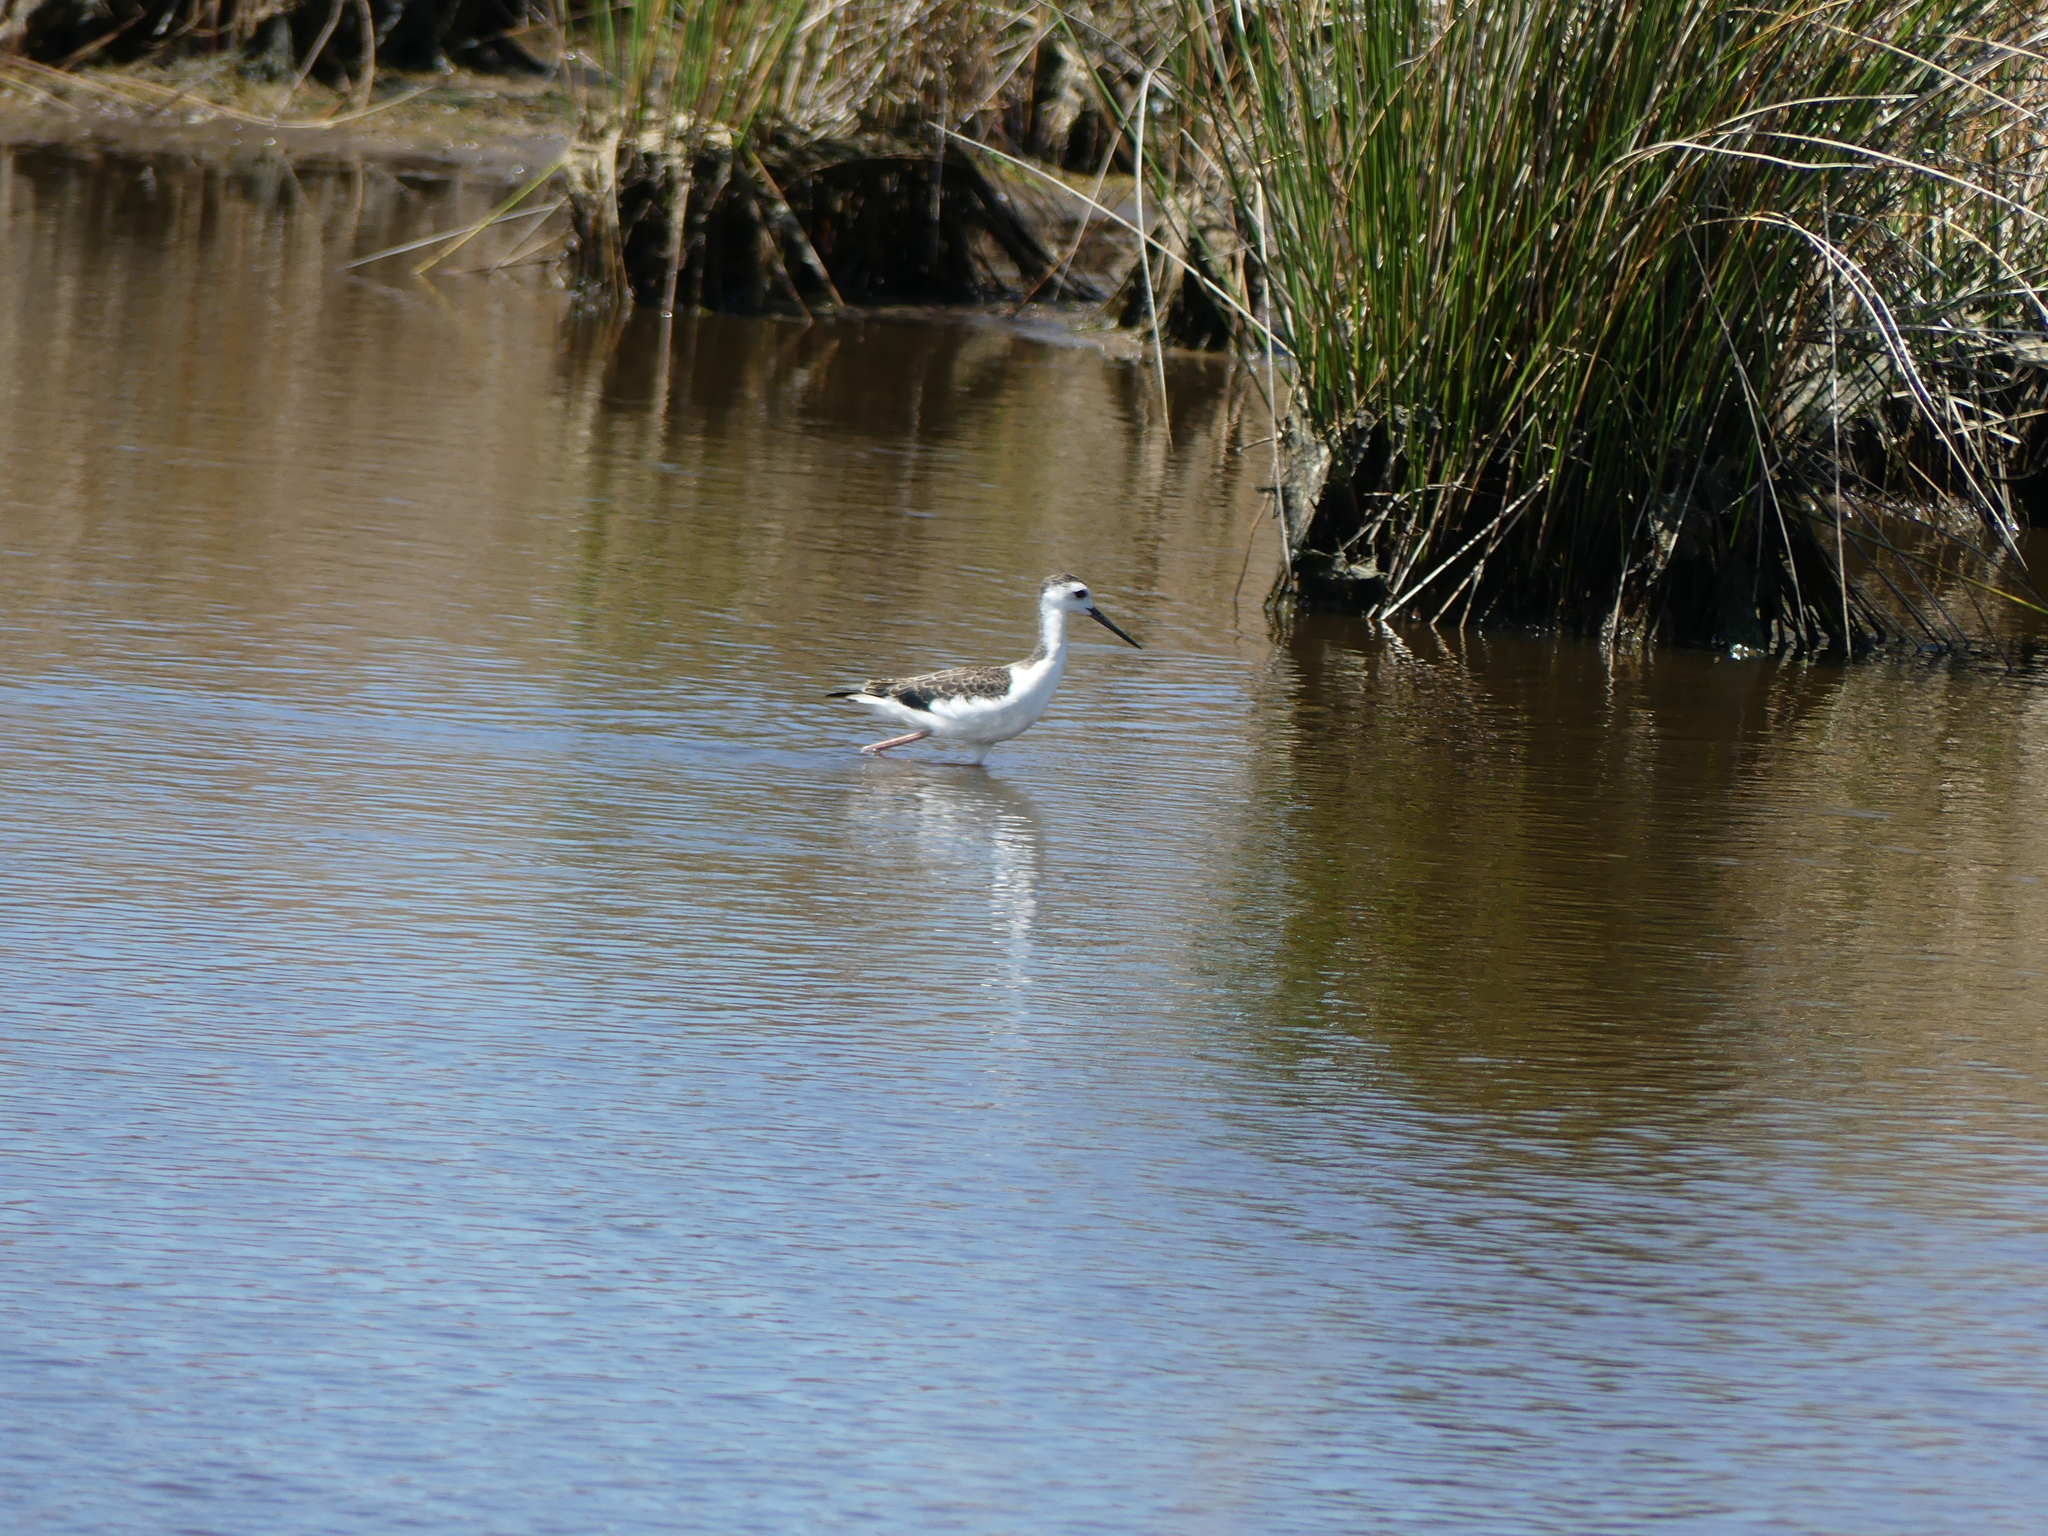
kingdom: Animalia
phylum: Chordata
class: Aves
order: Charadriiformes
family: Recurvirostridae
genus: Himantopus
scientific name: Himantopus mexicanus
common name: Black-necked stilt
